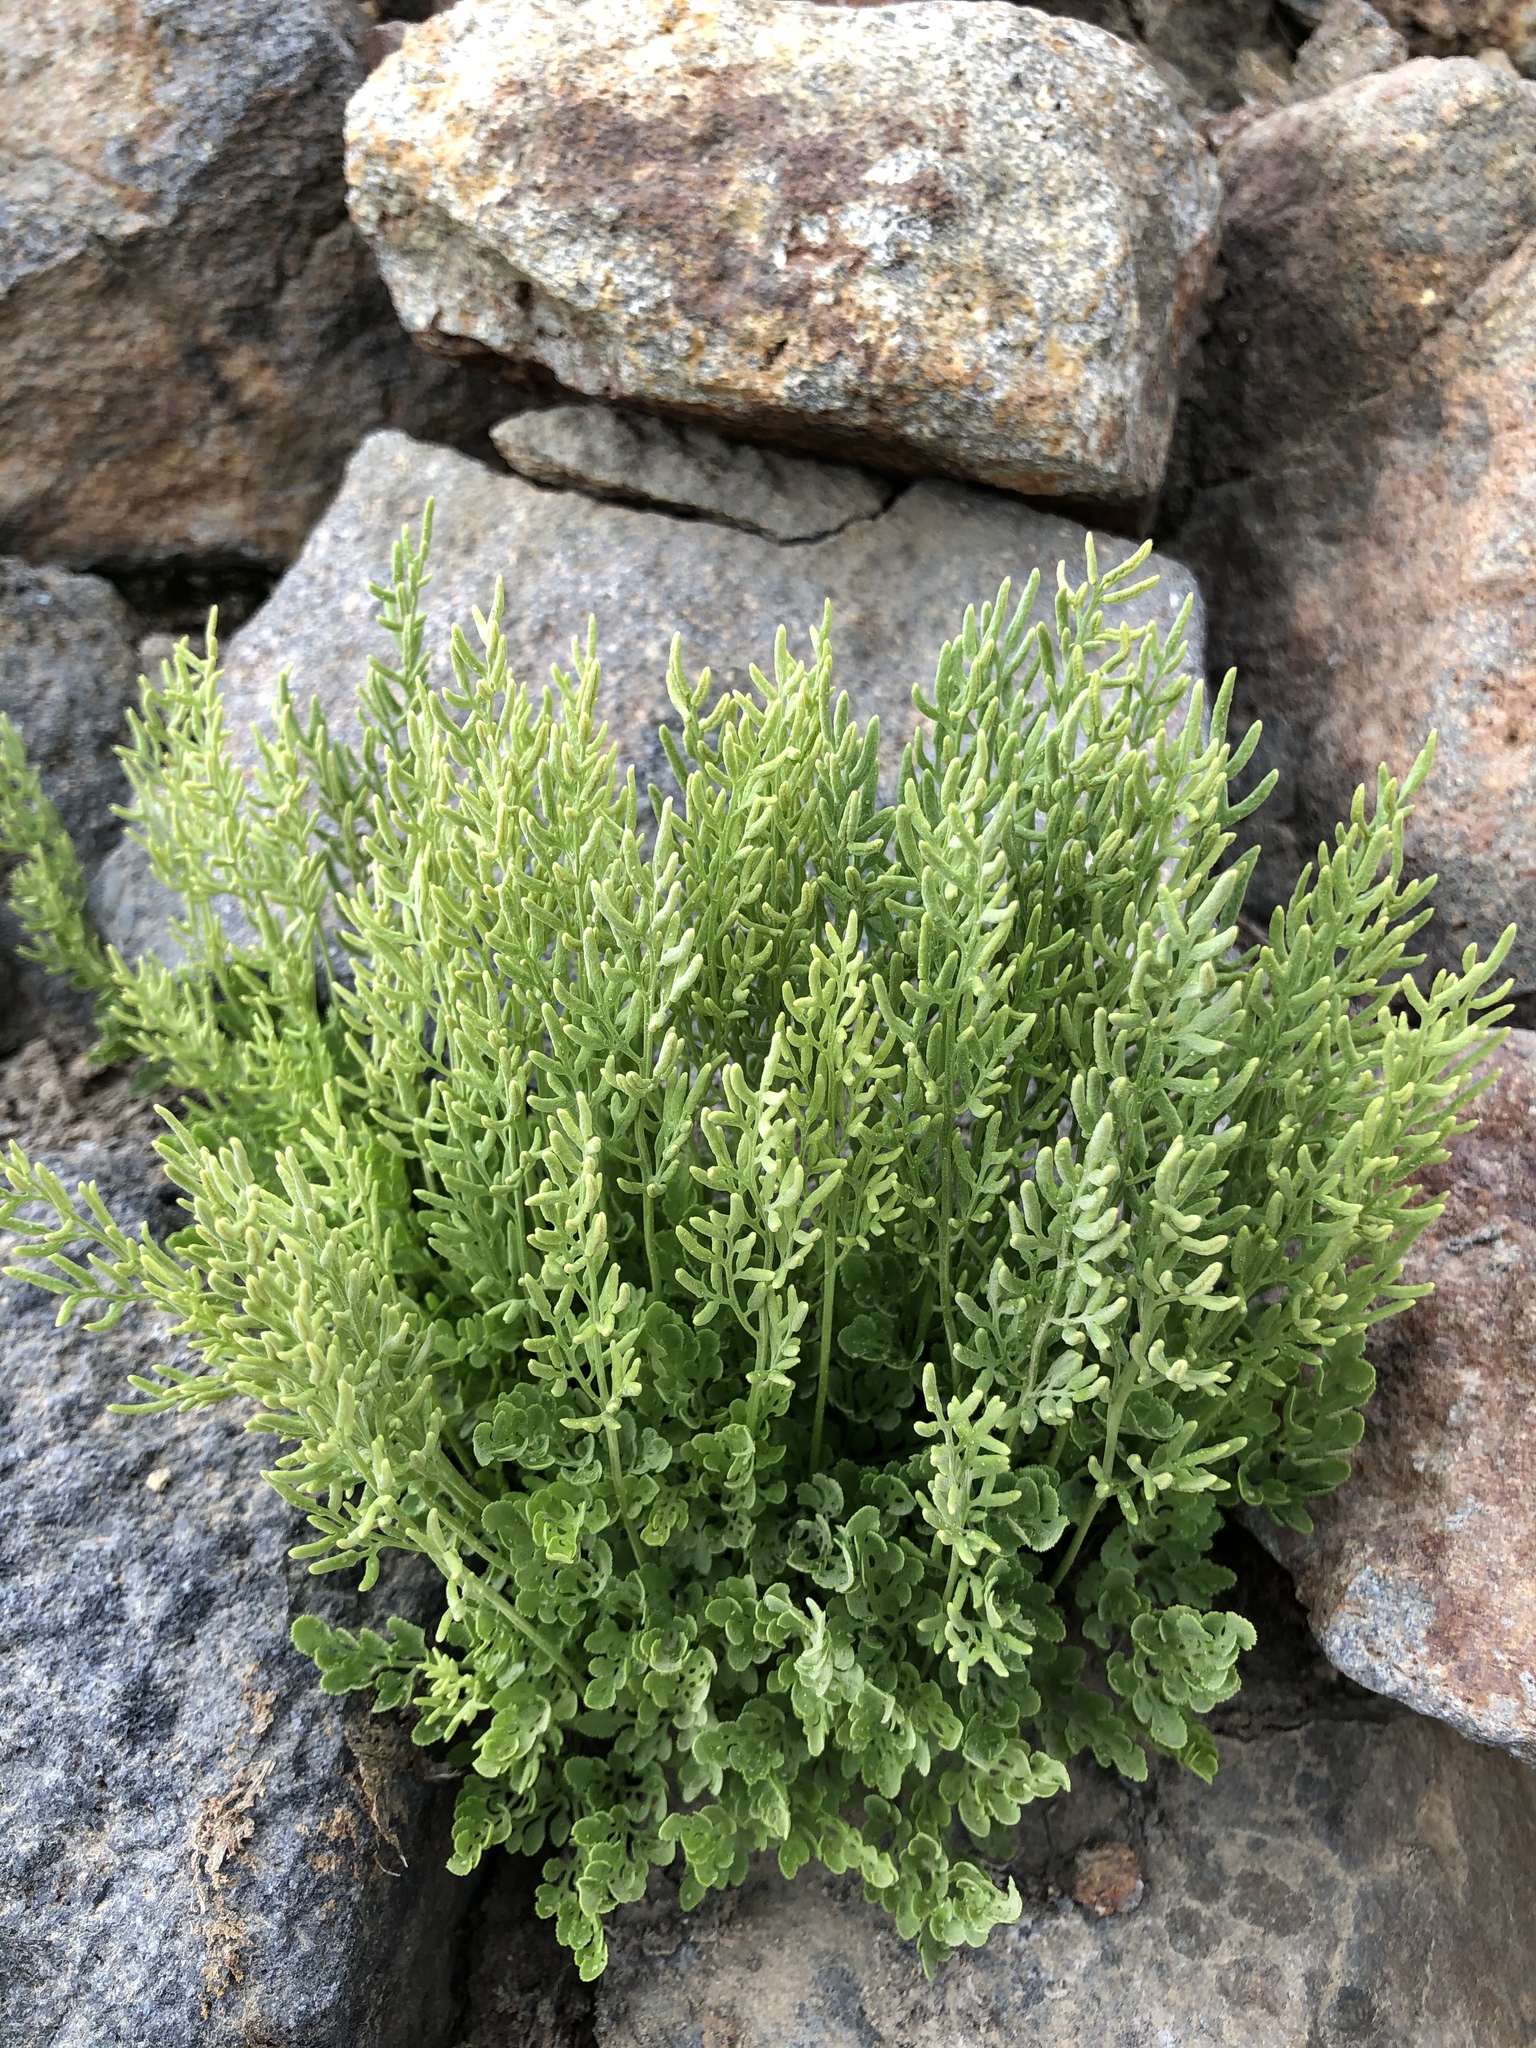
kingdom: Plantae
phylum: Tracheophyta
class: Polypodiopsida
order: Polypodiales
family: Pteridaceae
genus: Cryptogramma
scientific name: Cryptogramma cascadensis
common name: Cascade parsley fern
